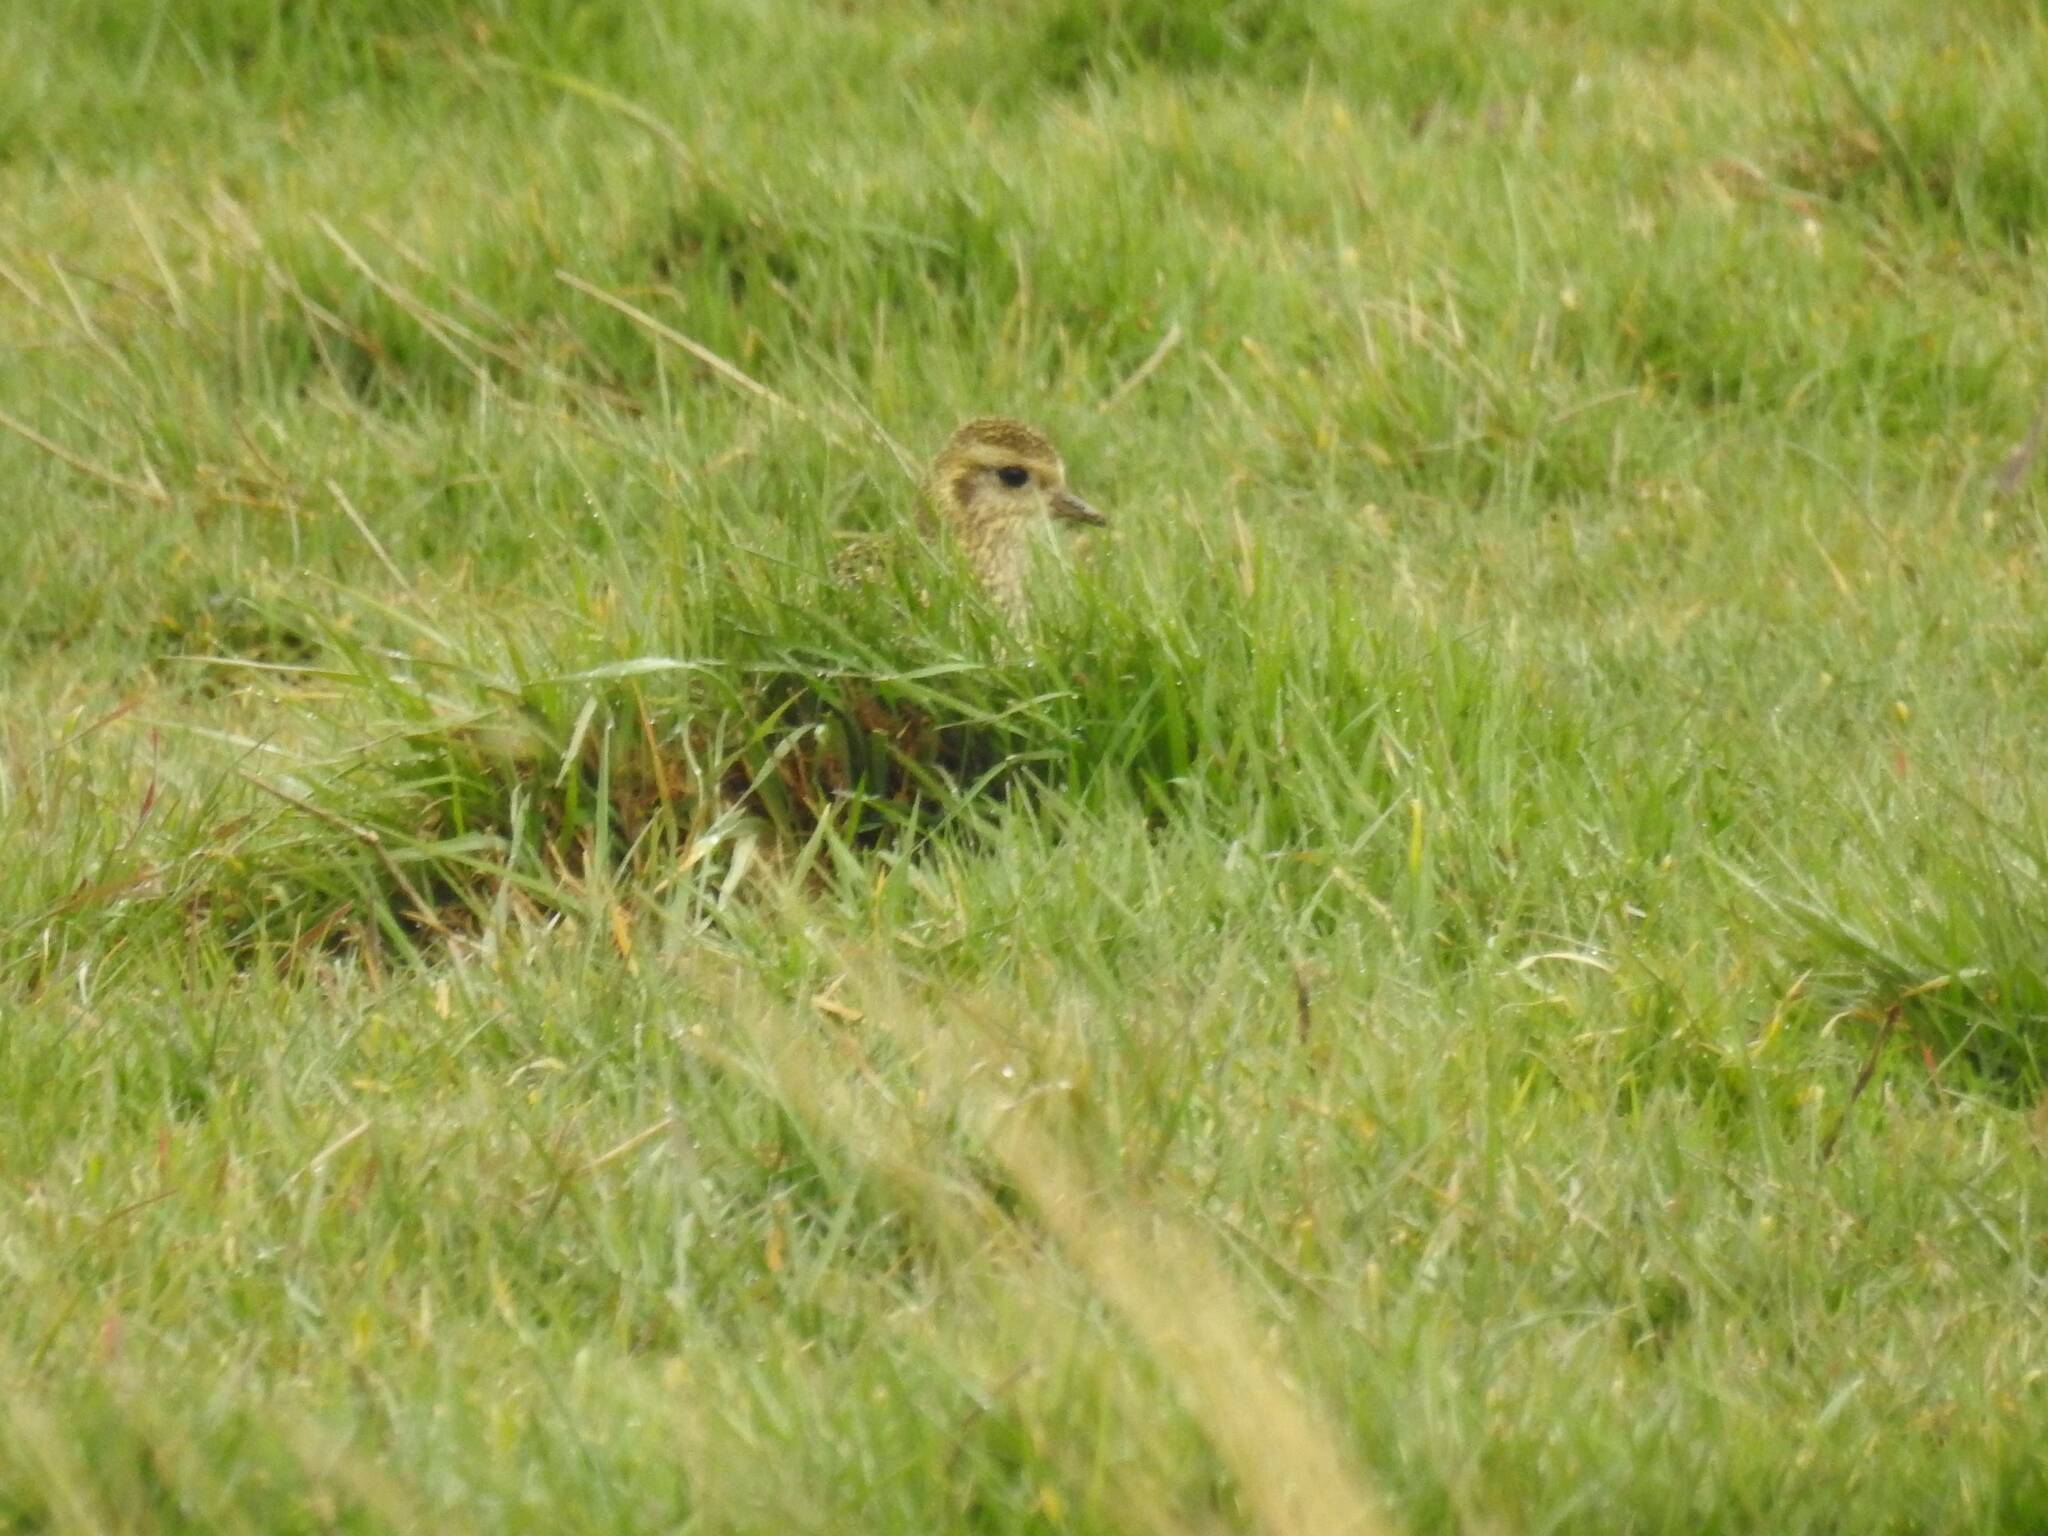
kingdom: Animalia
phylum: Chordata
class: Aves
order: Charadriiformes
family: Charadriidae
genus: Pluvialis
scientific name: Pluvialis apricaria
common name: European golden plover
